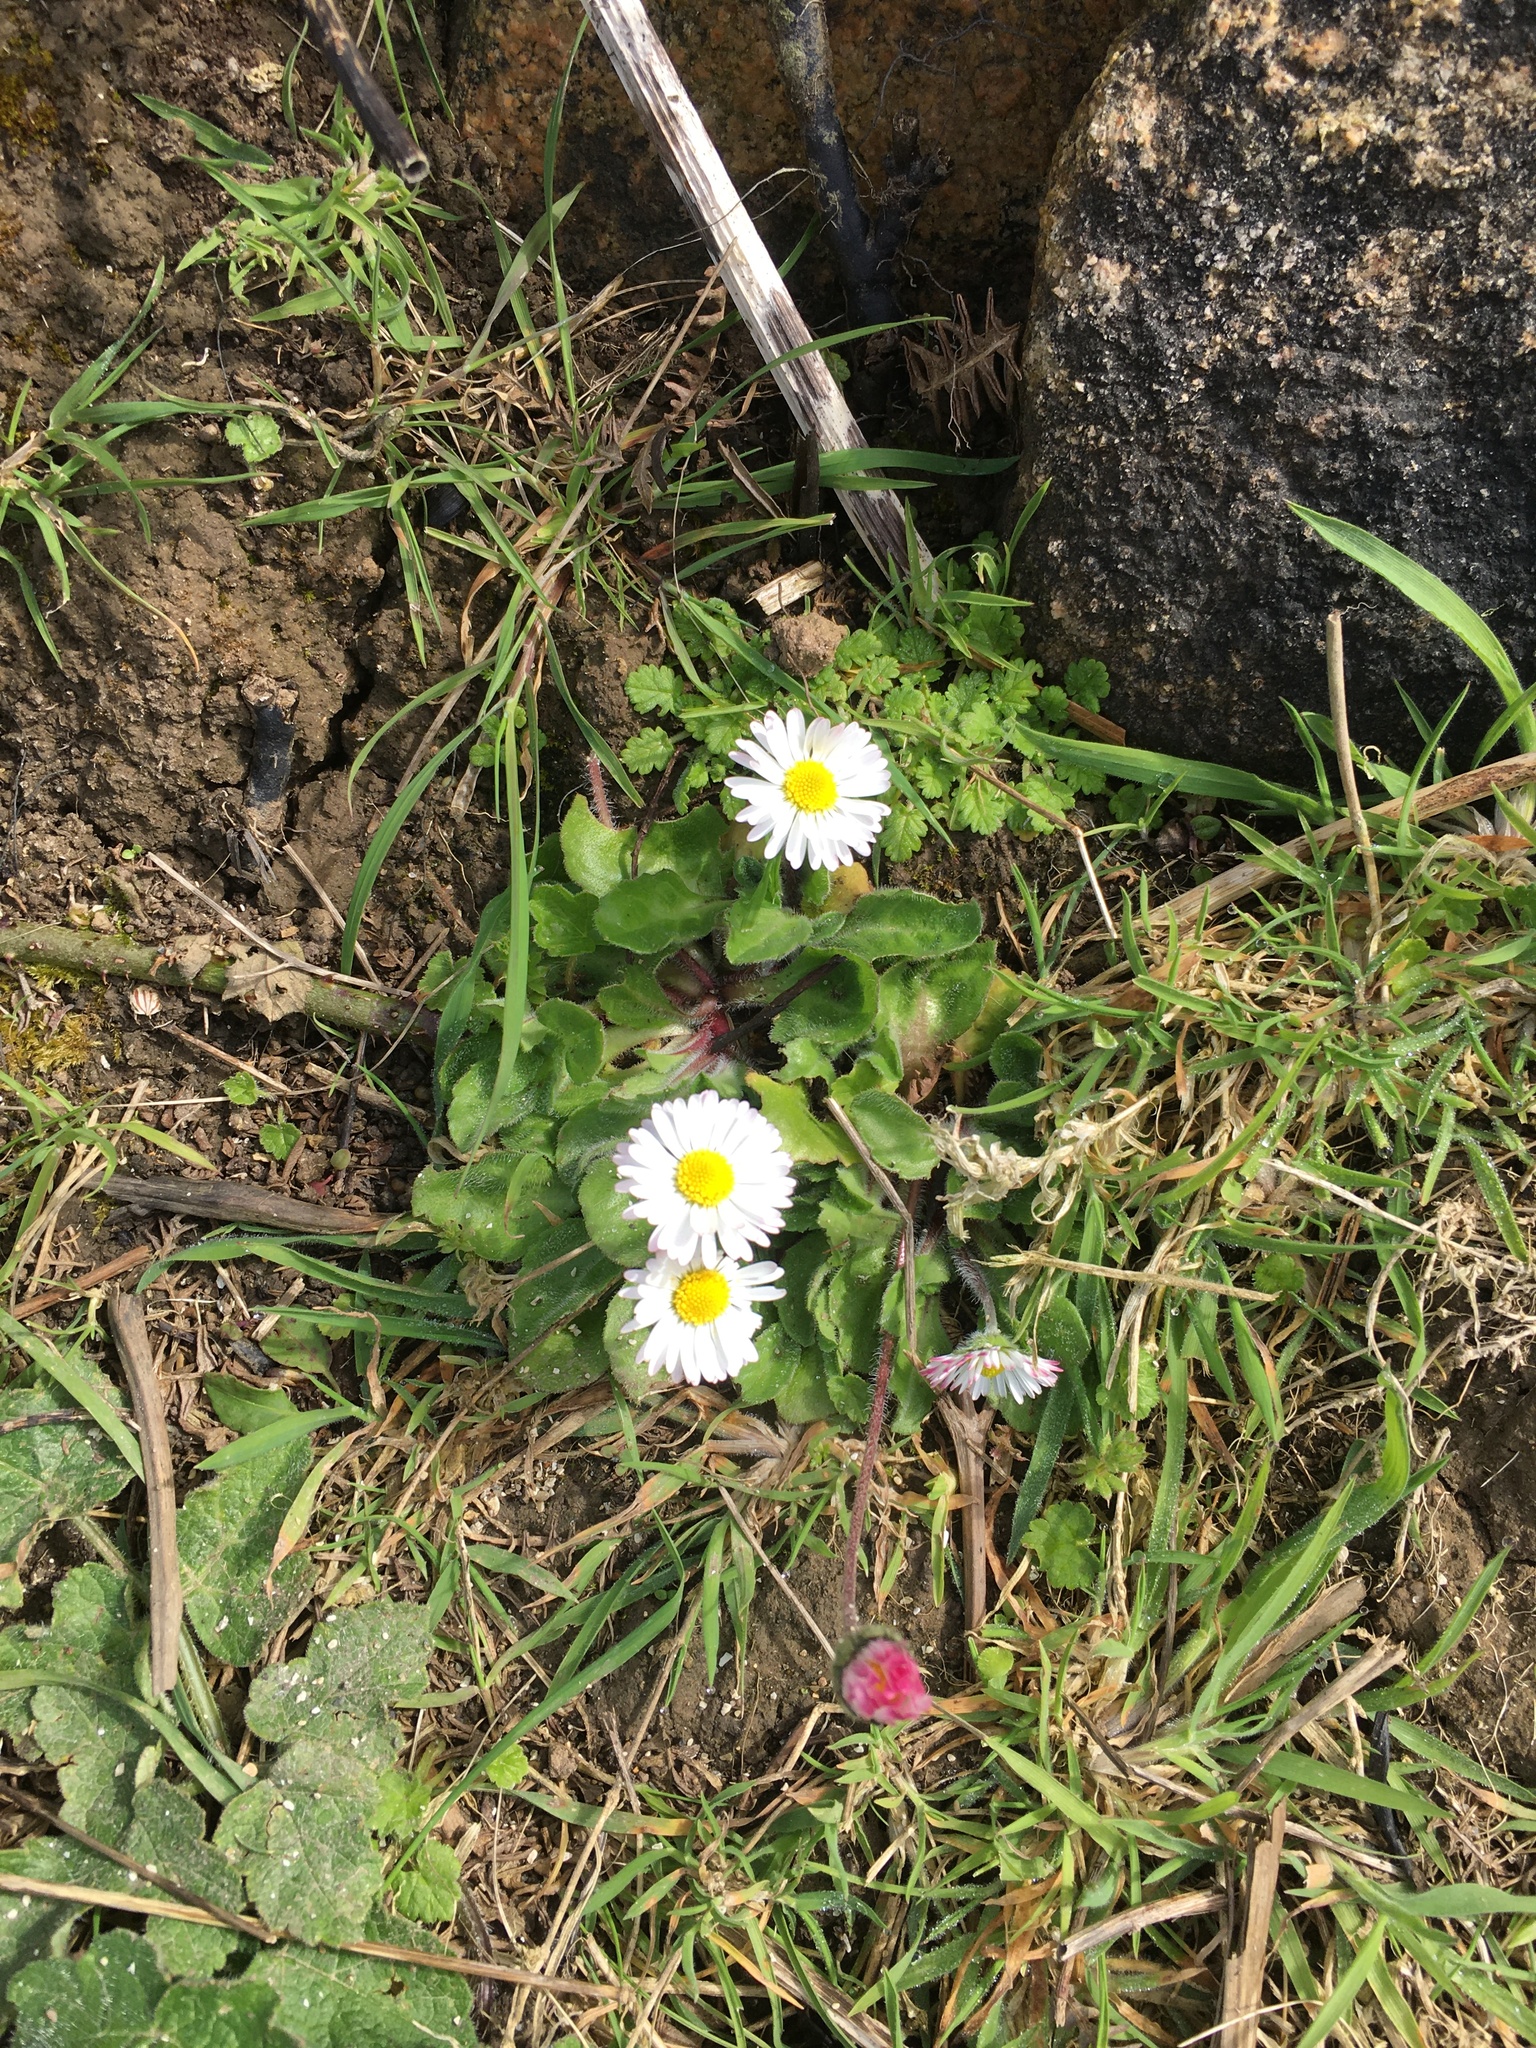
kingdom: Plantae
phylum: Tracheophyta
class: Magnoliopsida
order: Asterales
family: Asteraceae
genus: Bellis
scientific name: Bellis perennis
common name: Lawndaisy
